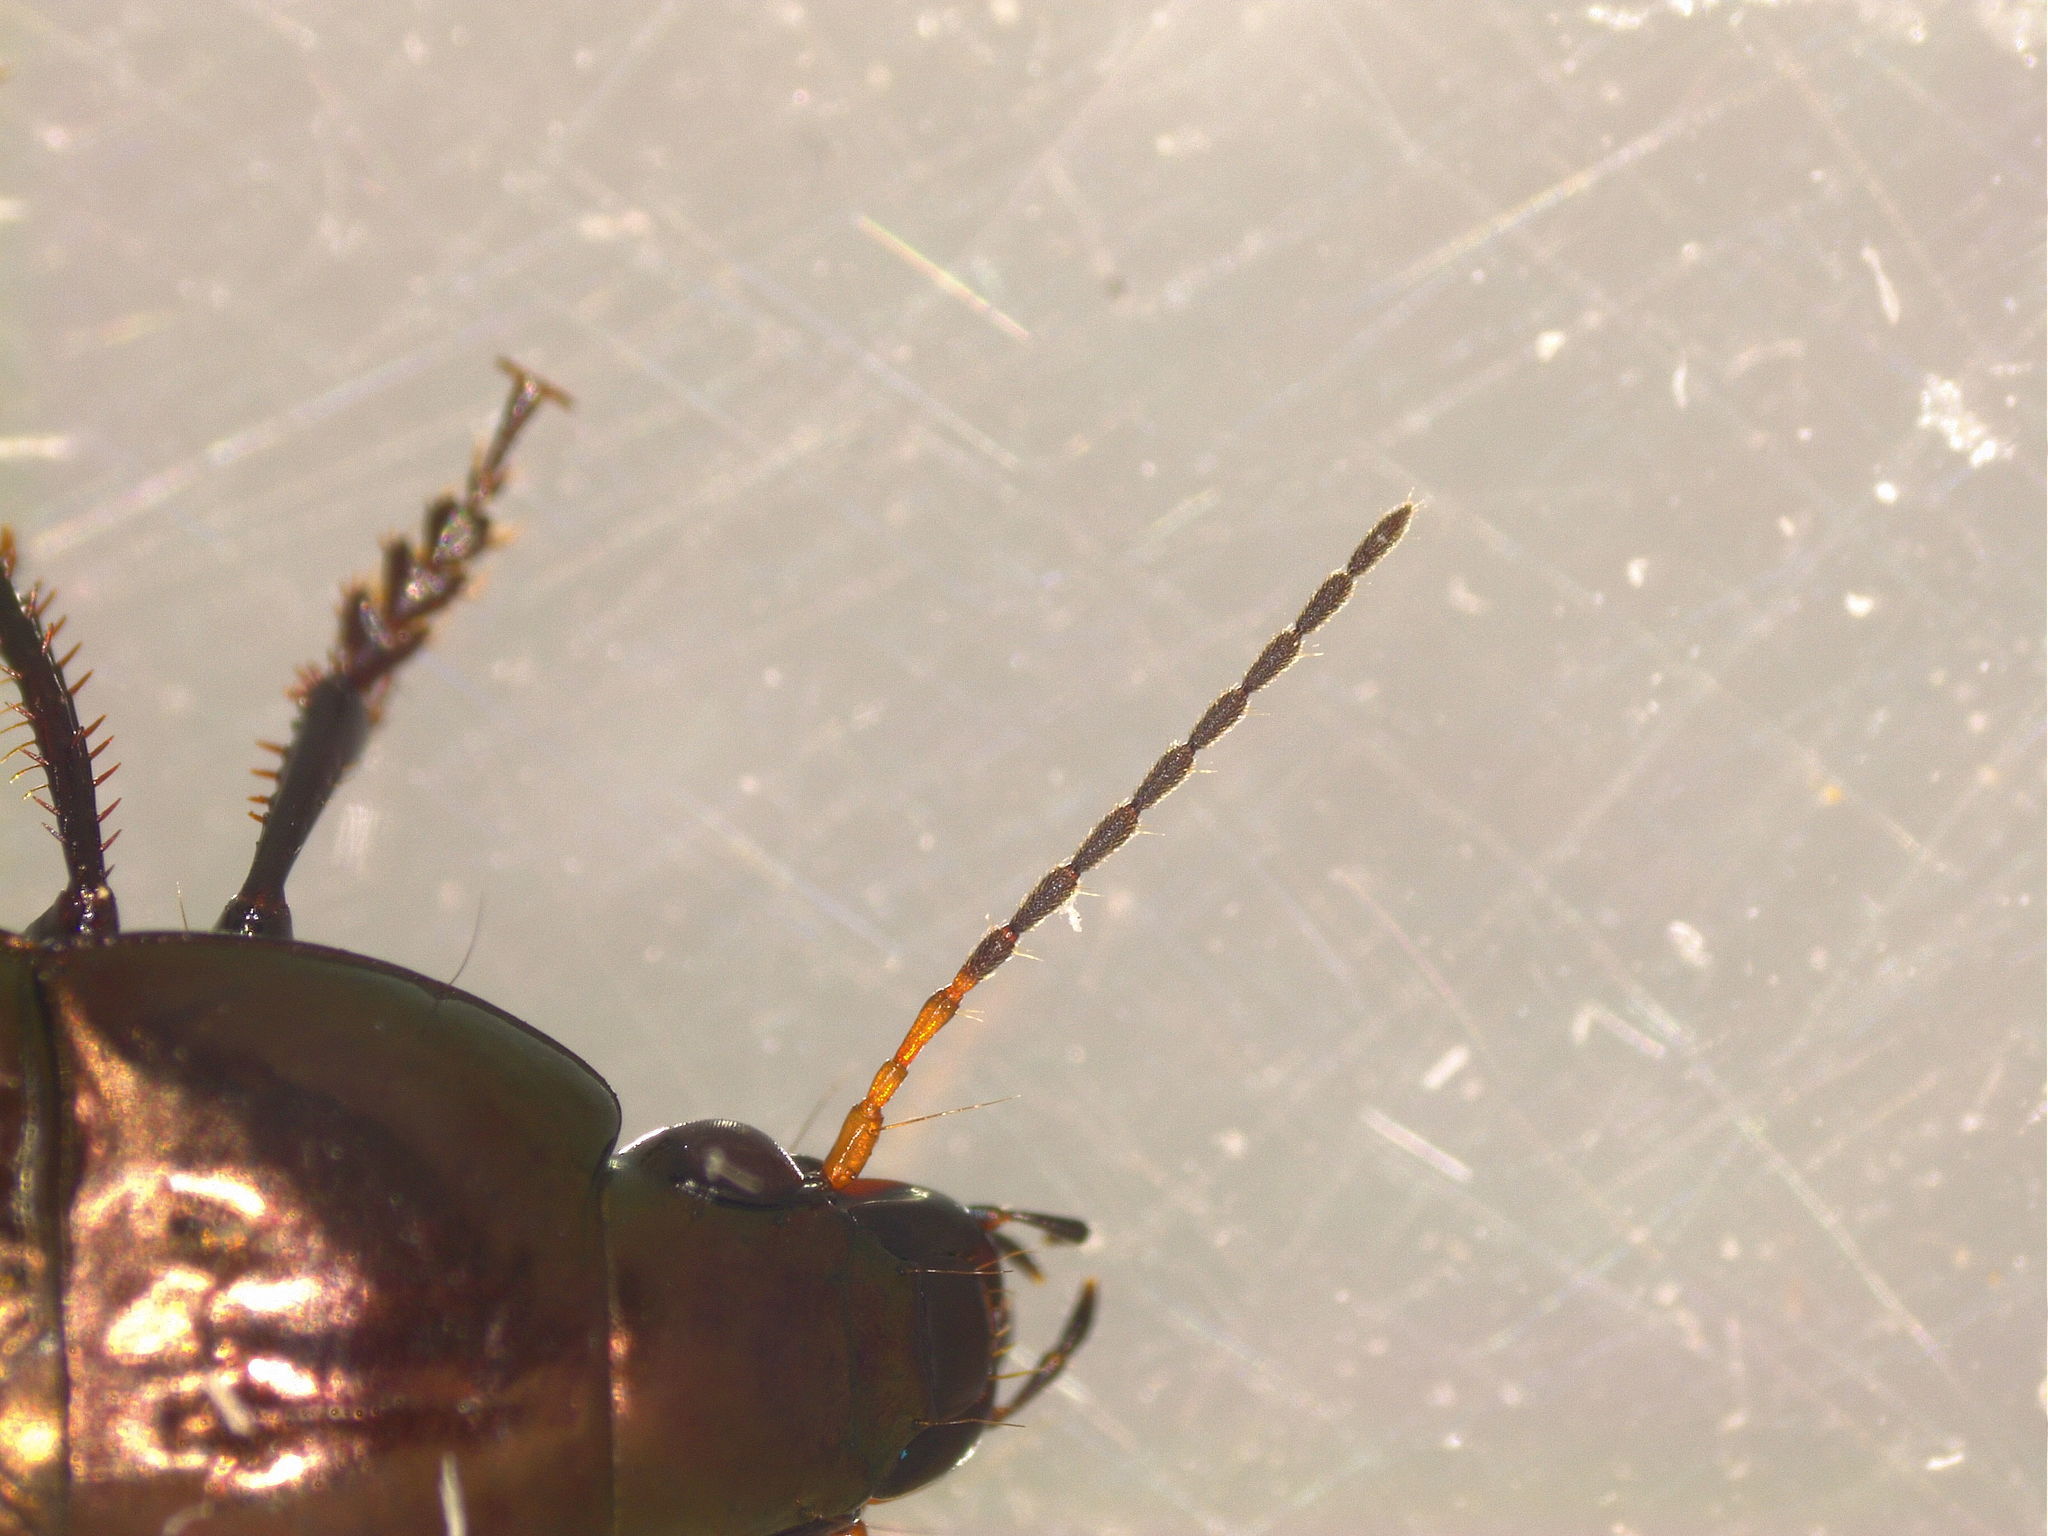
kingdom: Animalia
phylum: Arthropoda
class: Insecta
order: Coleoptera
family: Carabidae
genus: Amara
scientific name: Amara eurynota
